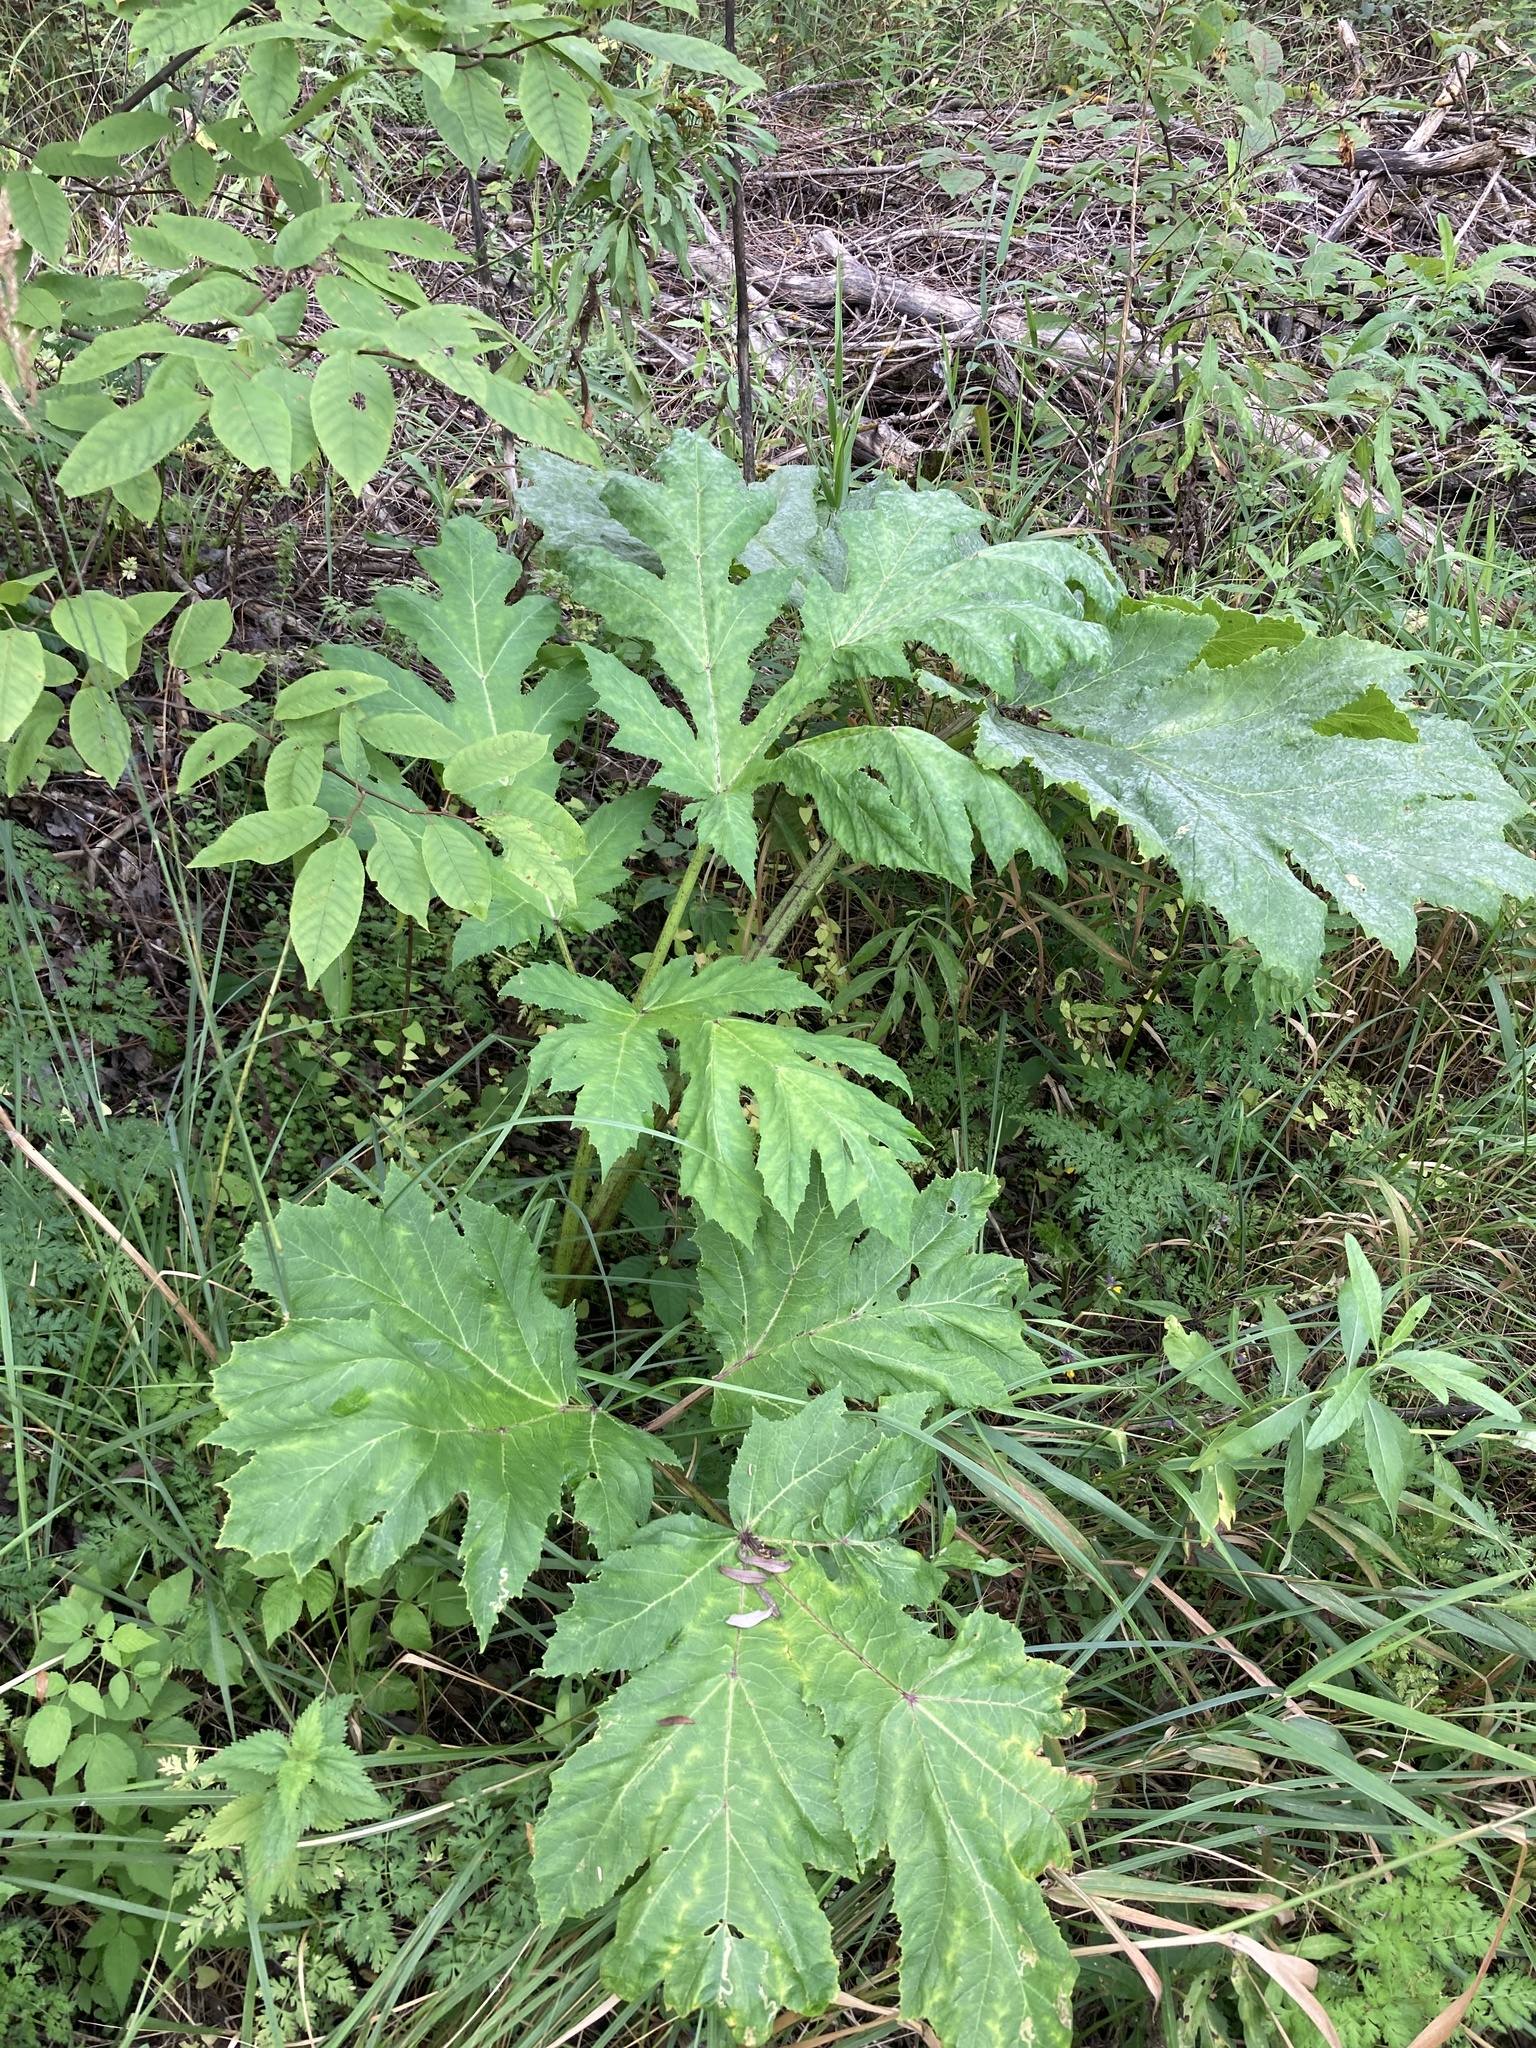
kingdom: Plantae
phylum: Tracheophyta
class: Magnoliopsida
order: Apiales
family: Apiaceae
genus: Heracleum
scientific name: Heracleum sosnowskyi
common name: Sosnowsky's hogweed
